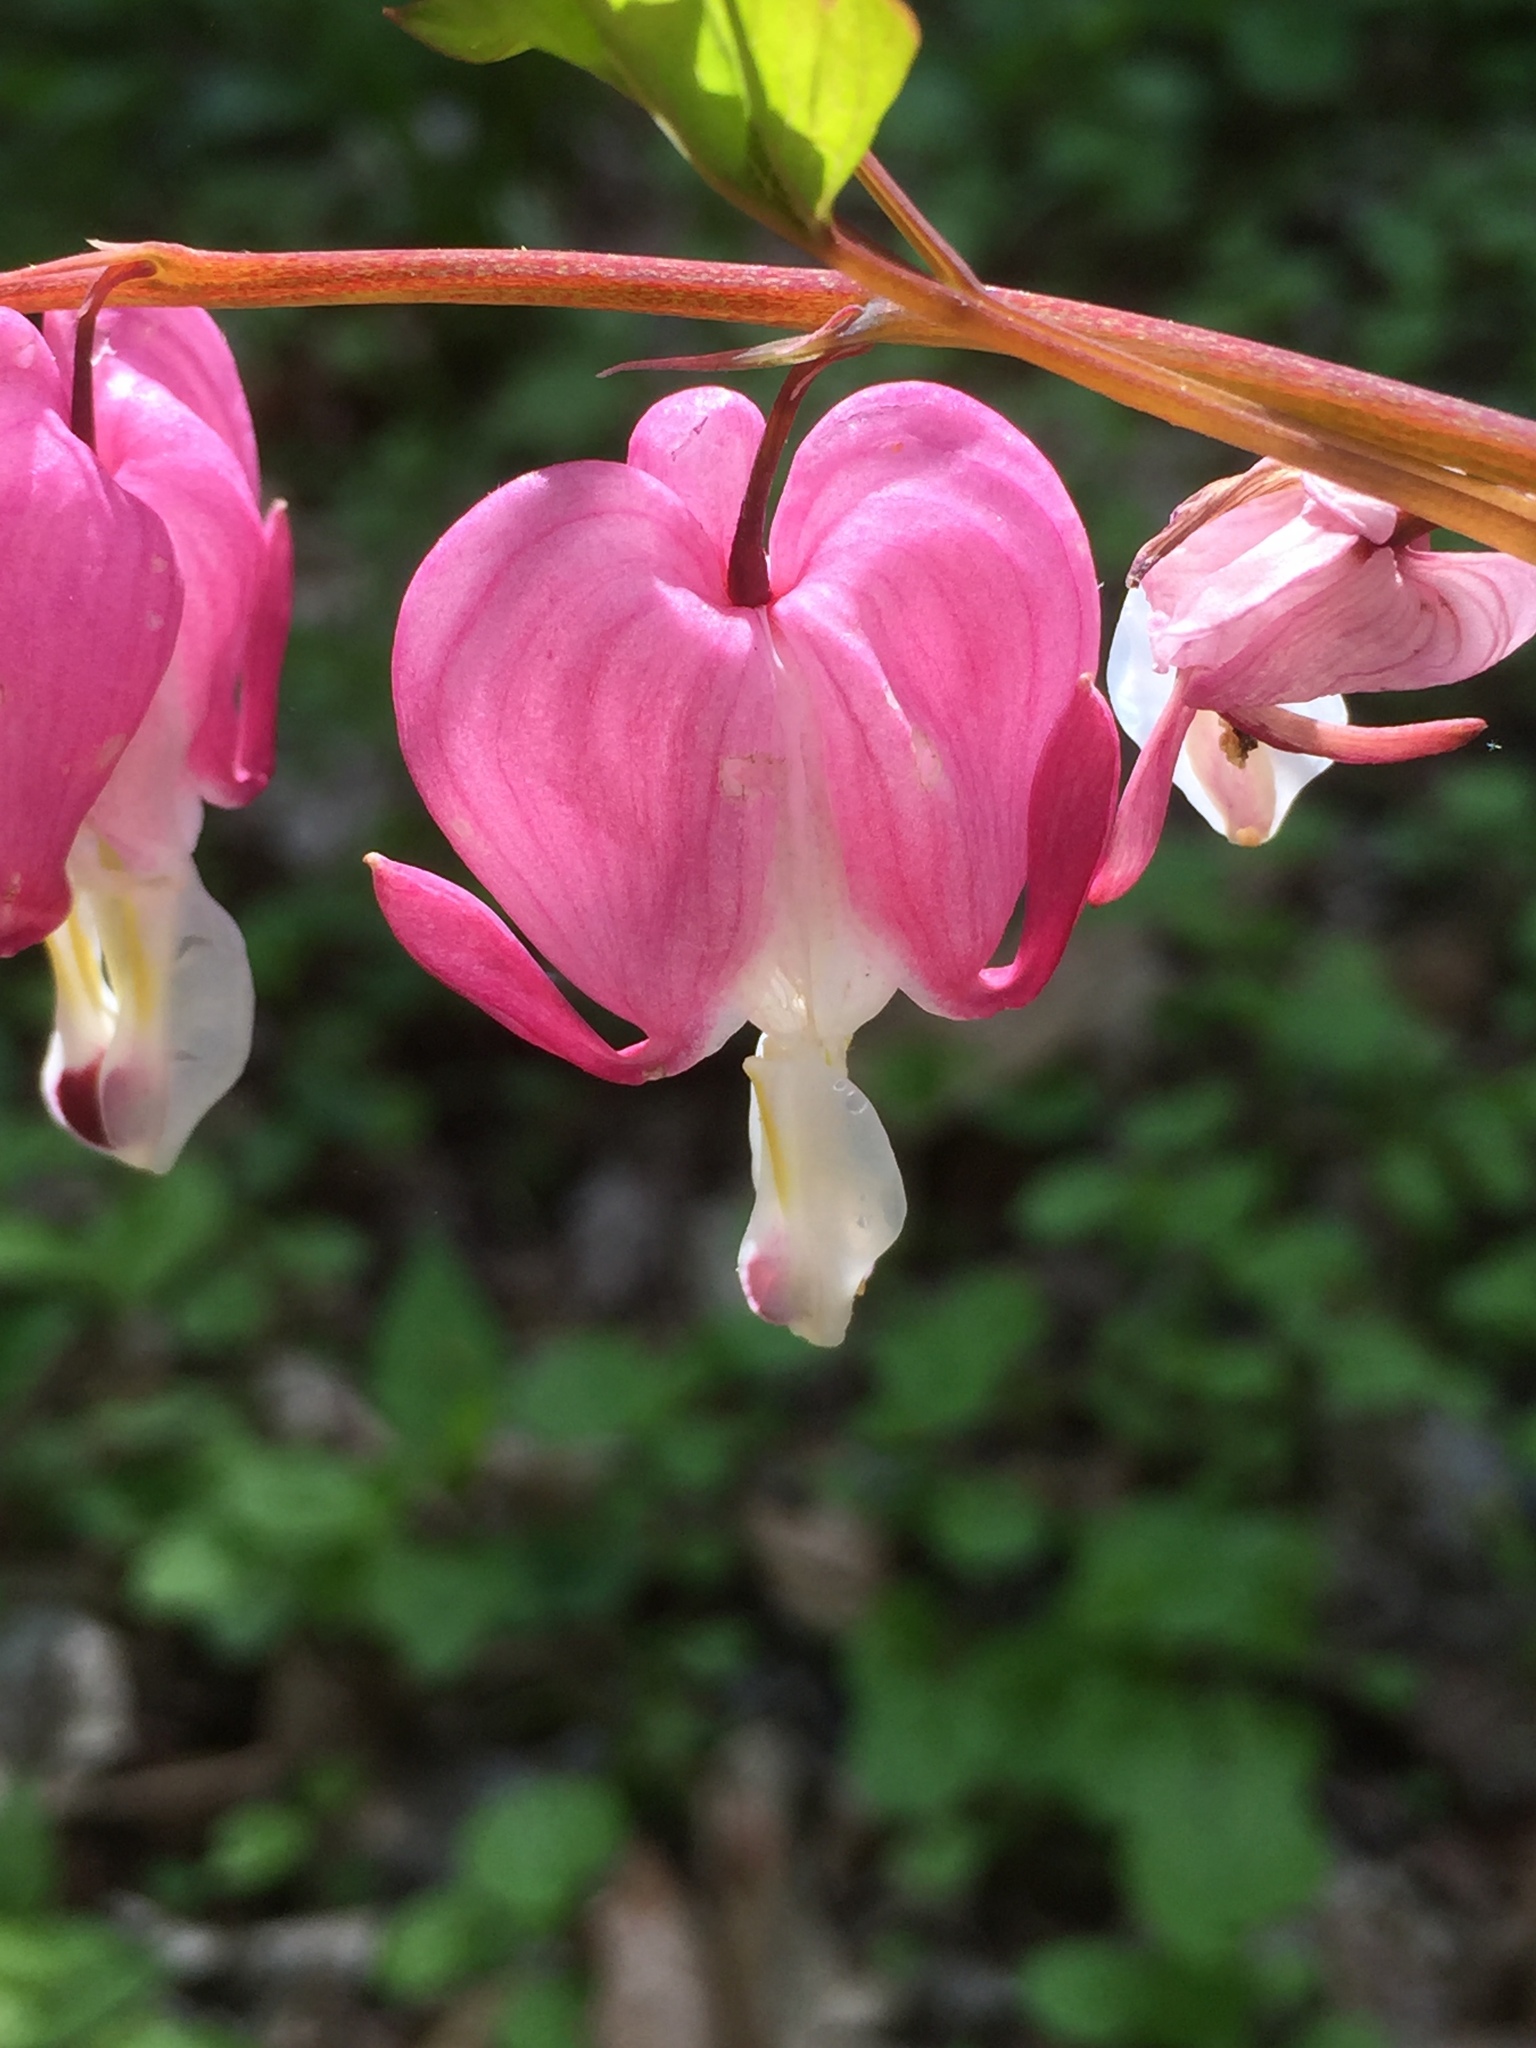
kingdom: Plantae
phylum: Tracheophyta
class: Magnoliopsida
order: Ranunculales
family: Papaveraceae
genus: Lamprocapnos
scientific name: Lamprocapnos spectabilis
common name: Asian bleeding-heart
